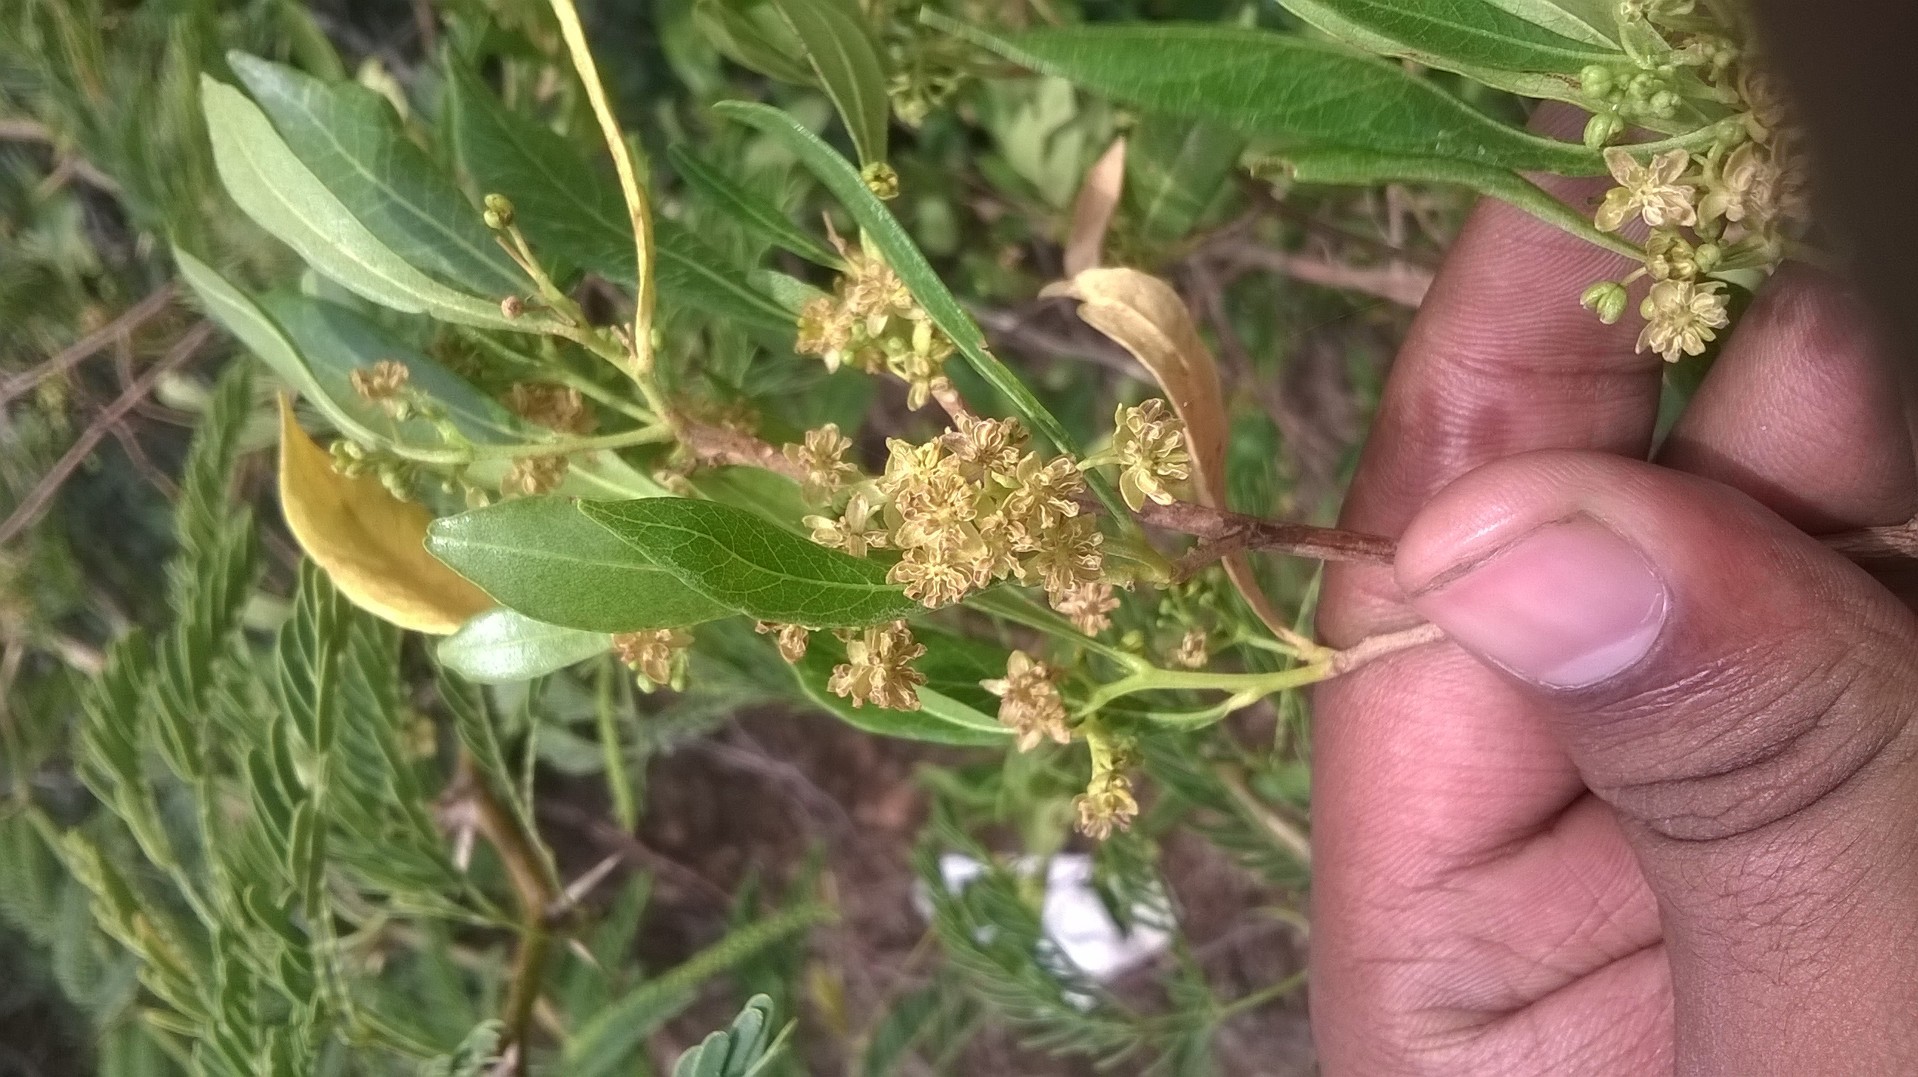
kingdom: Plantae
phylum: Tracheophyta
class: Magnoliopsida
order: Sapindales
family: Sapindaceae
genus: Dodonaea
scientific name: Dodonaea viscosa
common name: Hopbush
